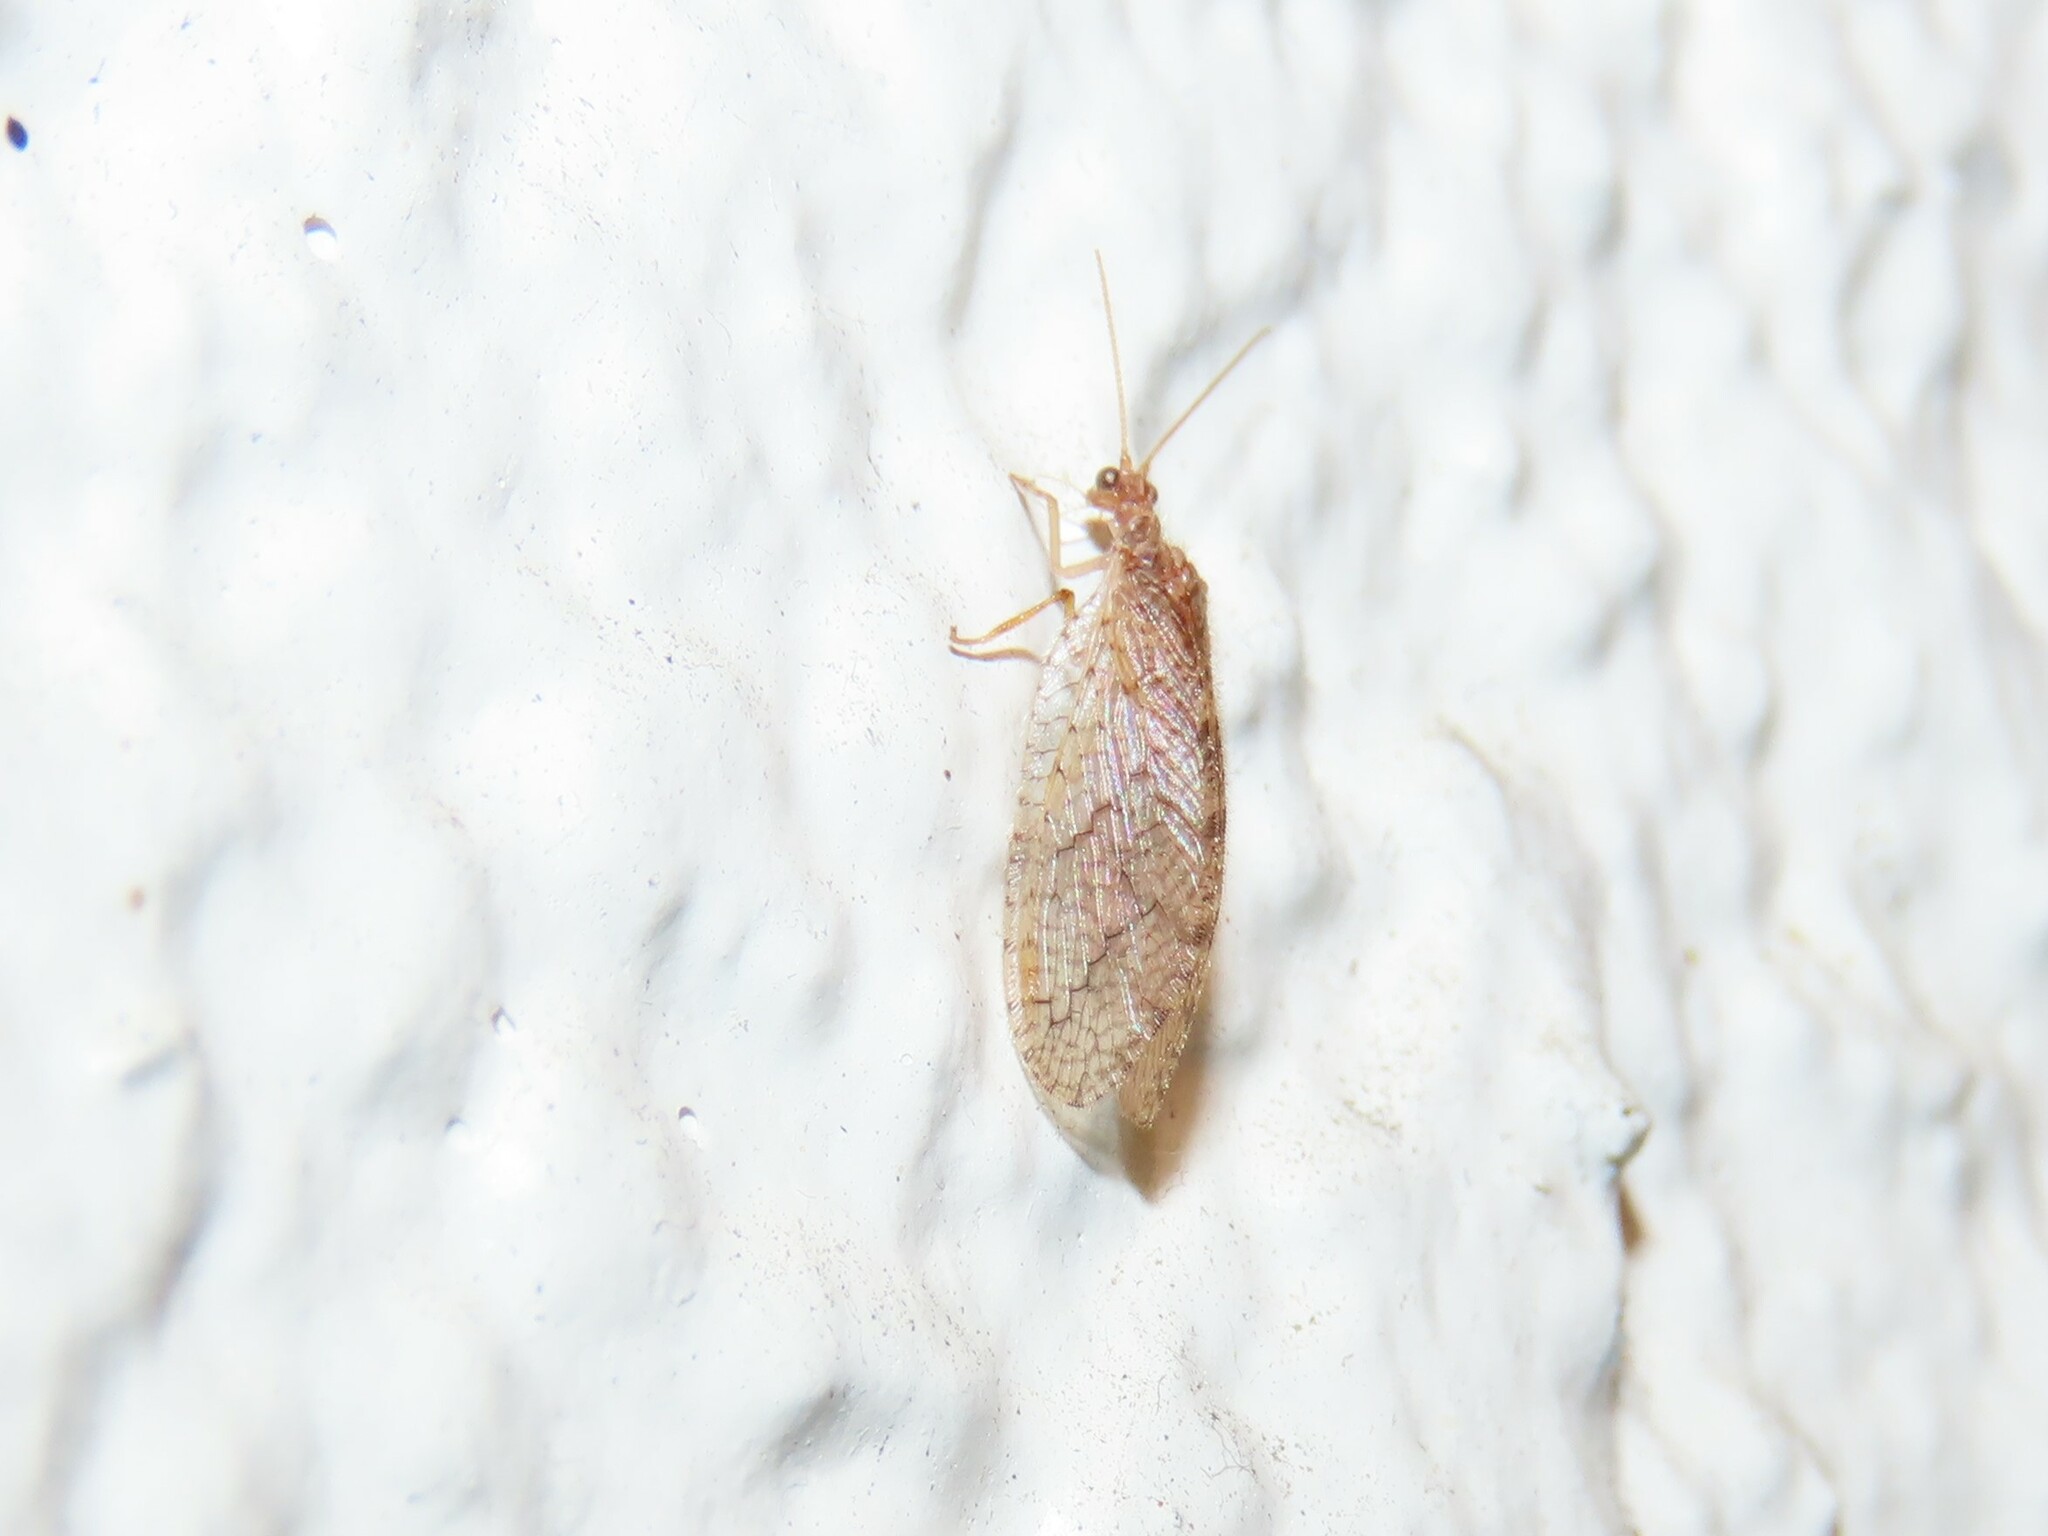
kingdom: Animalia
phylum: Arthropoda
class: Insecta
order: Neuroptera
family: Hemerobiidae
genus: Micromus
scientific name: Micromus posticus
